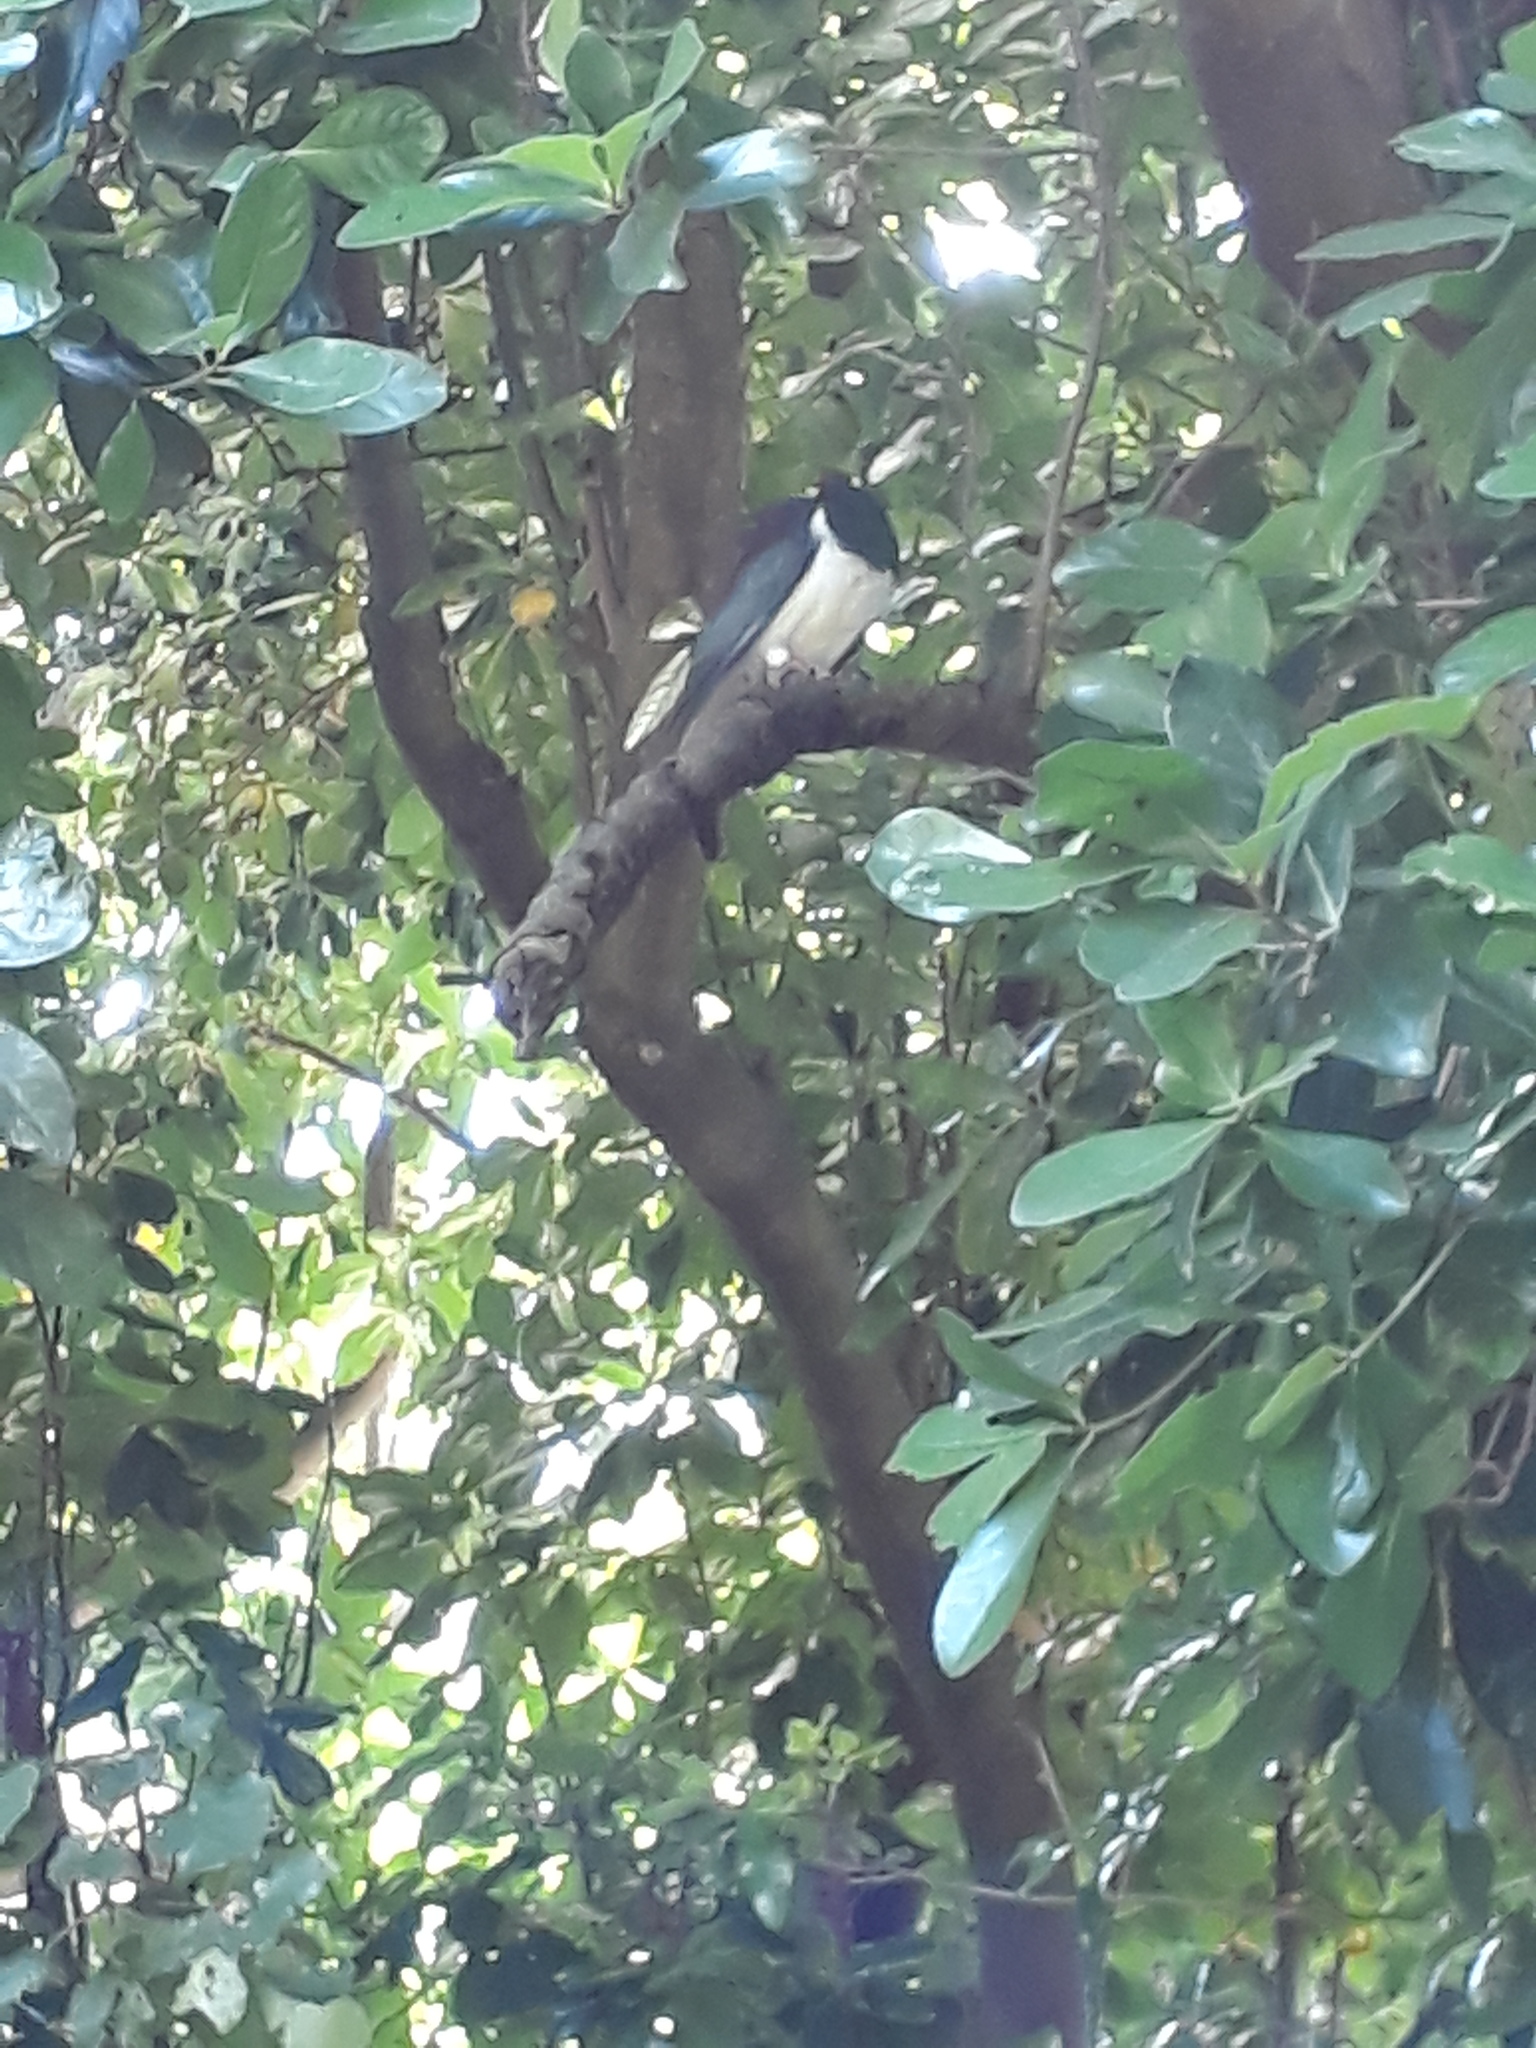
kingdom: Animalia
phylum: Chordata
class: Aves
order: Columbiformes
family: Columbidae
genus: Hemiphaga
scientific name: Hemiphaga novaeseelandiae
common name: New zealand pigeon
